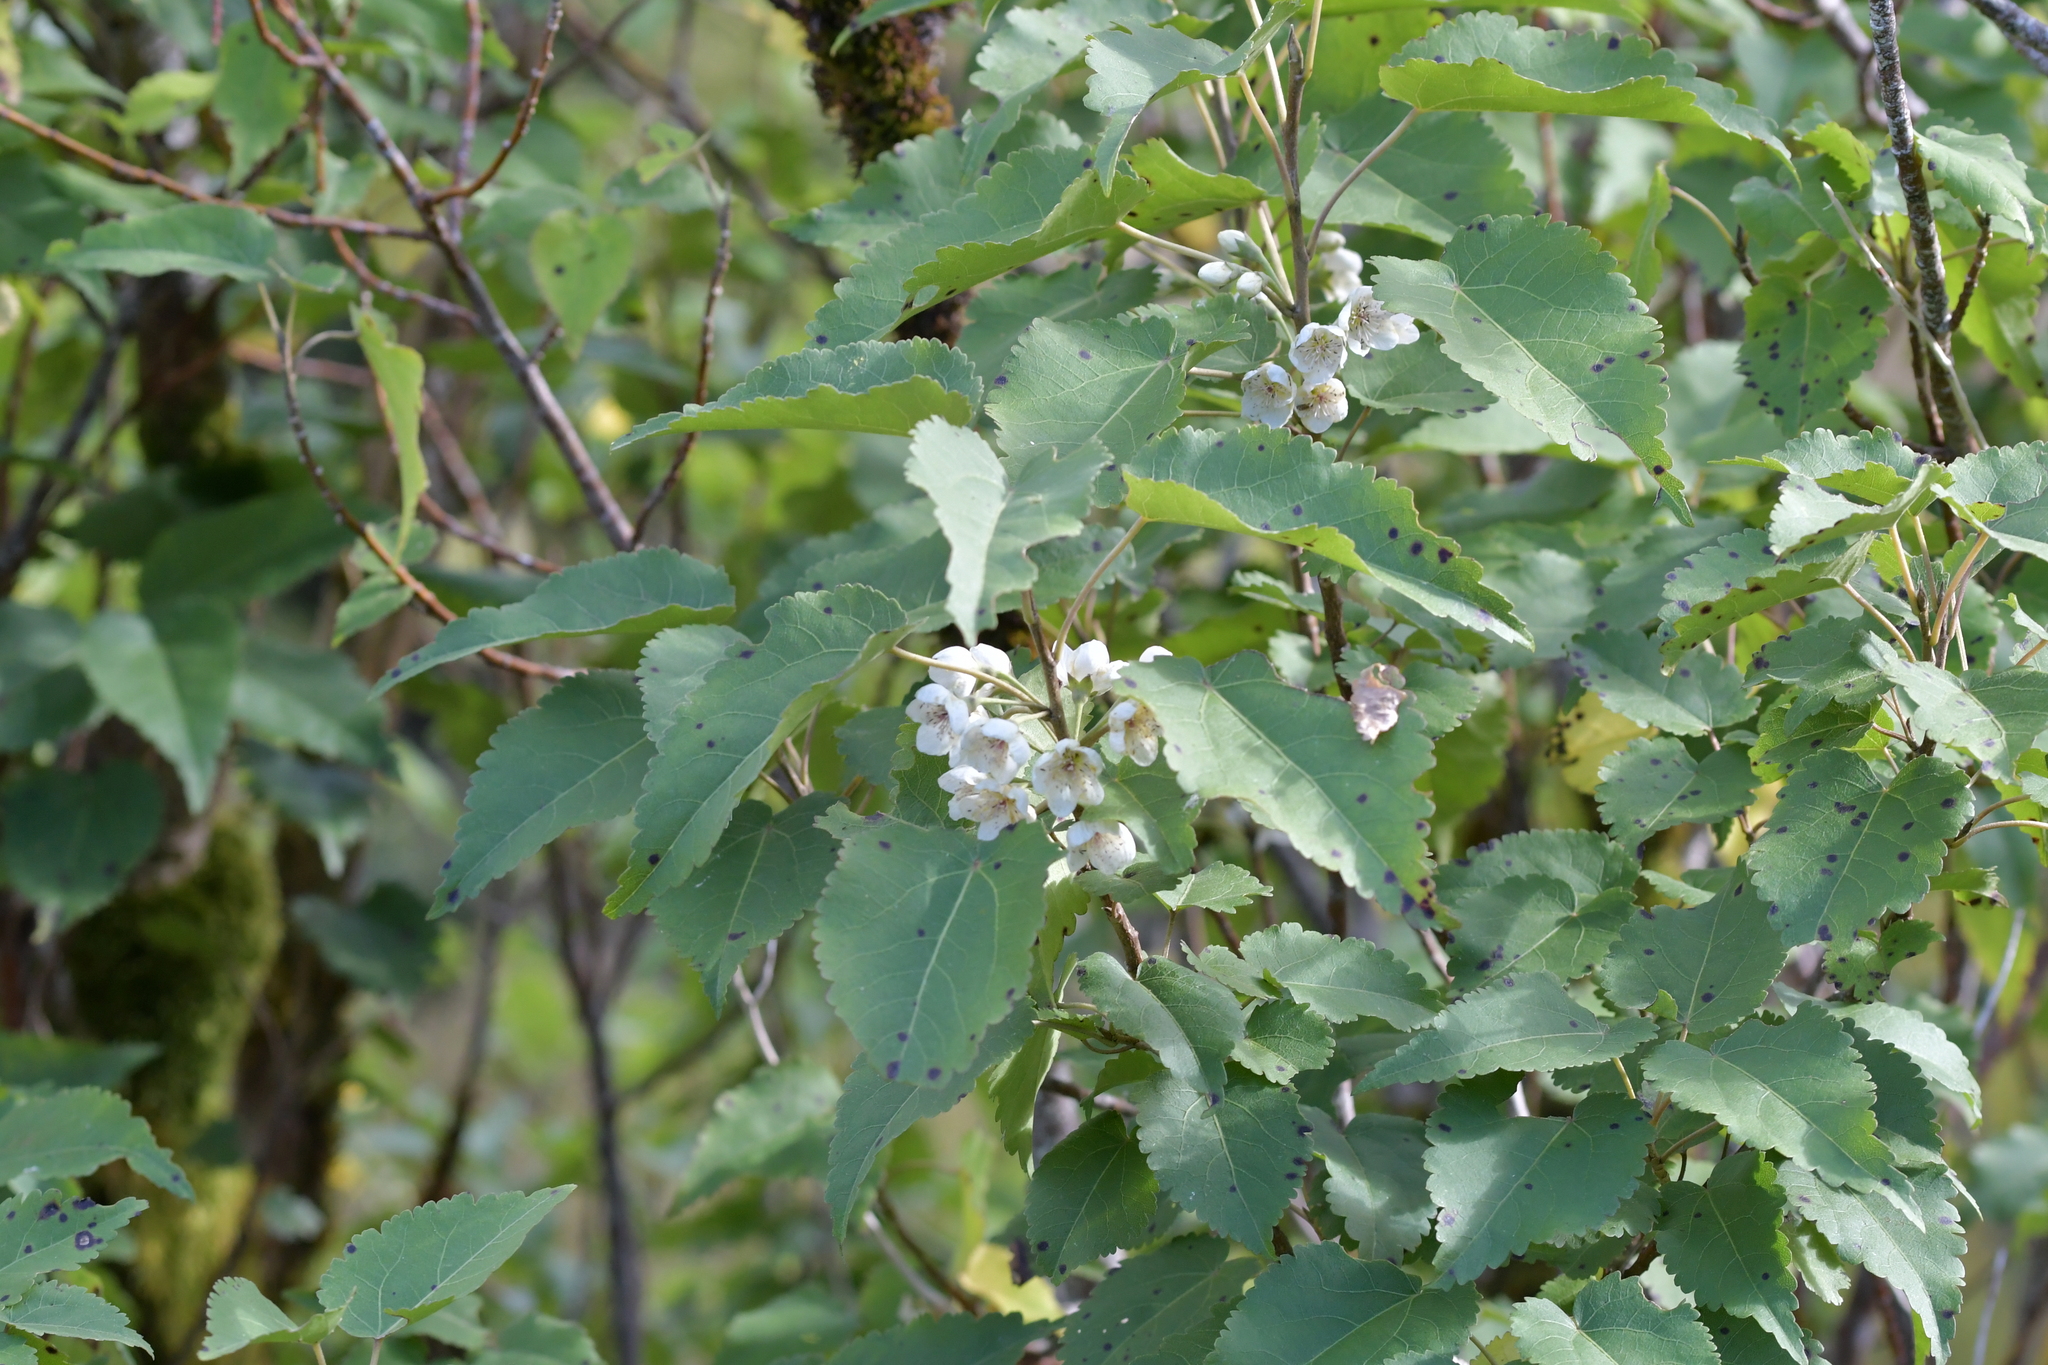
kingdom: Plantae
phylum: Tracheophyta
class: Magnoliopsida
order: Malvales
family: Malvaceae
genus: Hoheria
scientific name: Hoheria glabrata
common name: Mountain-ribbon
